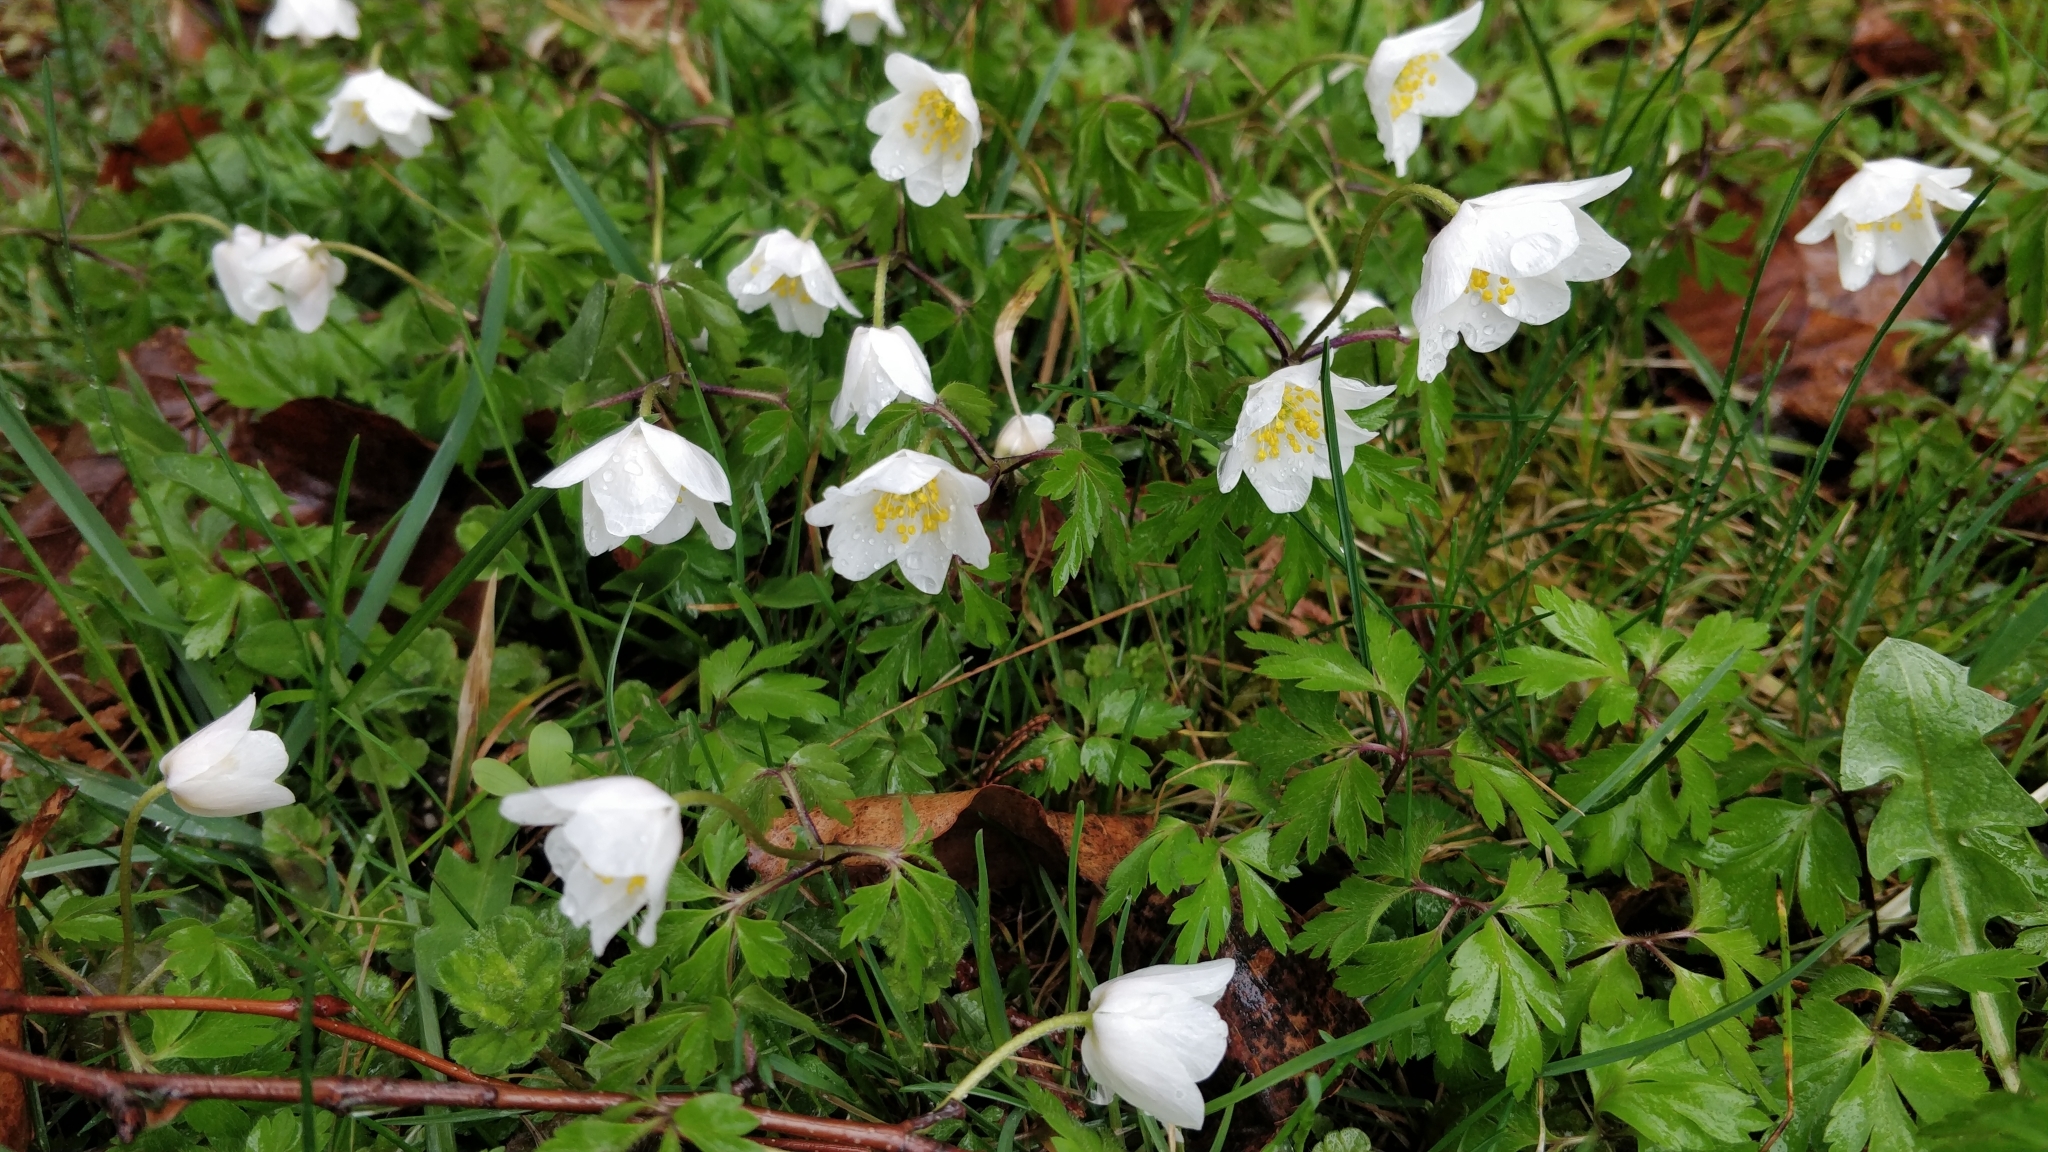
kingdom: Plantae
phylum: Tracheophyta
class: Magnoliopsida
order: Ranunculales
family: Ranunculaceae
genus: Anemone
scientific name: Anemone nemorosa
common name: Wood anemone
